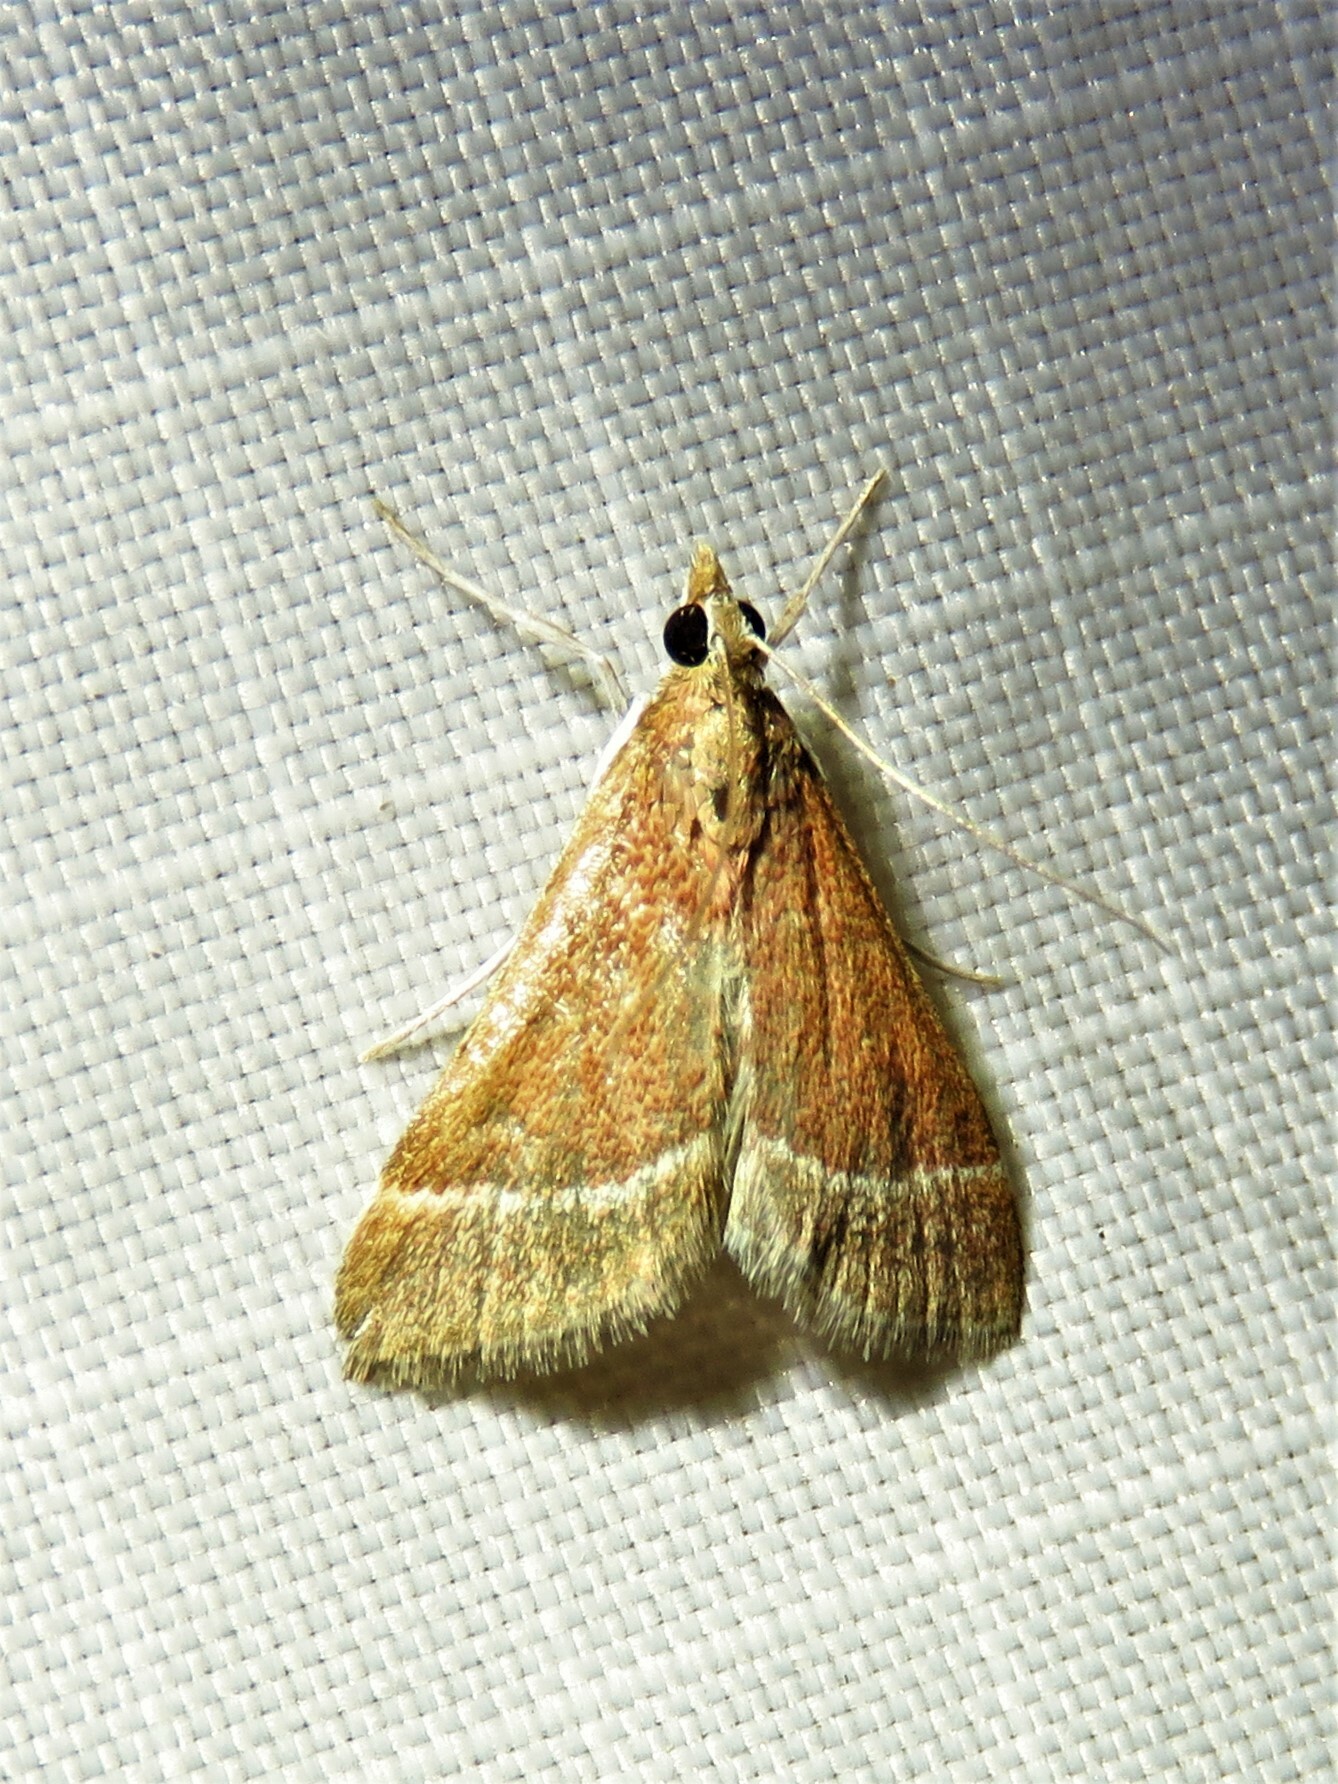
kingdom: Animalia
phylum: Arthropoda
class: Insecta
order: Lepidoptera
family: Crambidae
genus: Pyrausta
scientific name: Pyrausta lethalis
